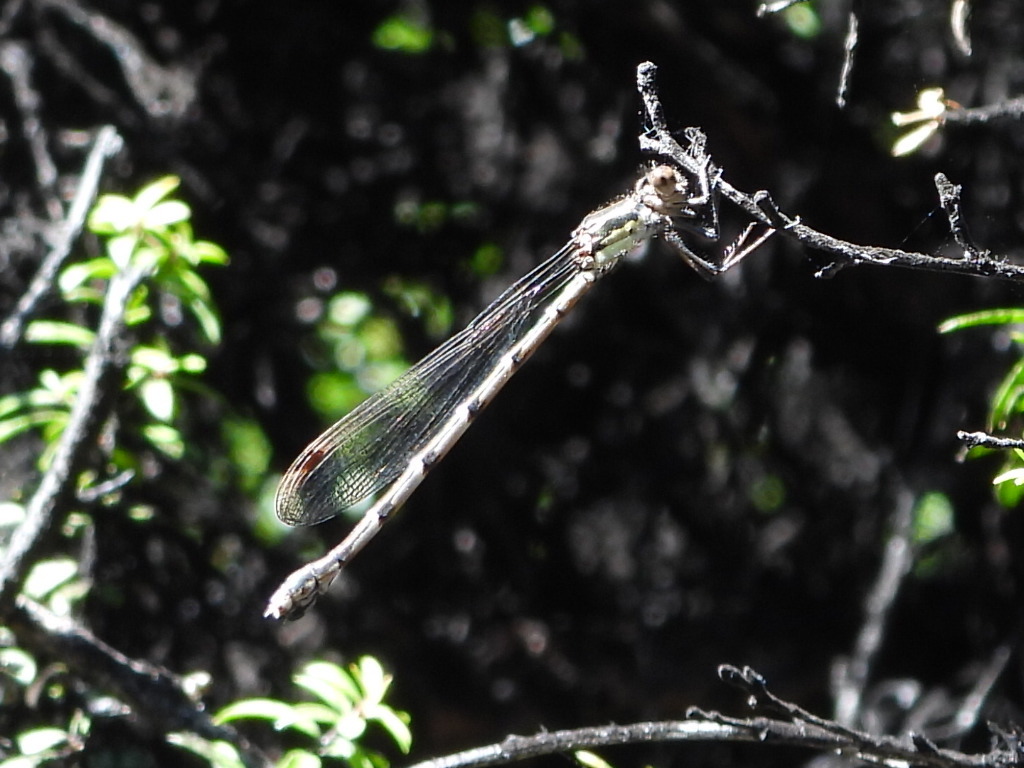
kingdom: Animalia
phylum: Arthropoda
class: Insecta
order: Odonata
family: Lestidae
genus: Austrolestes
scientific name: Austrolestes colensonis
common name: Blue damselfly
